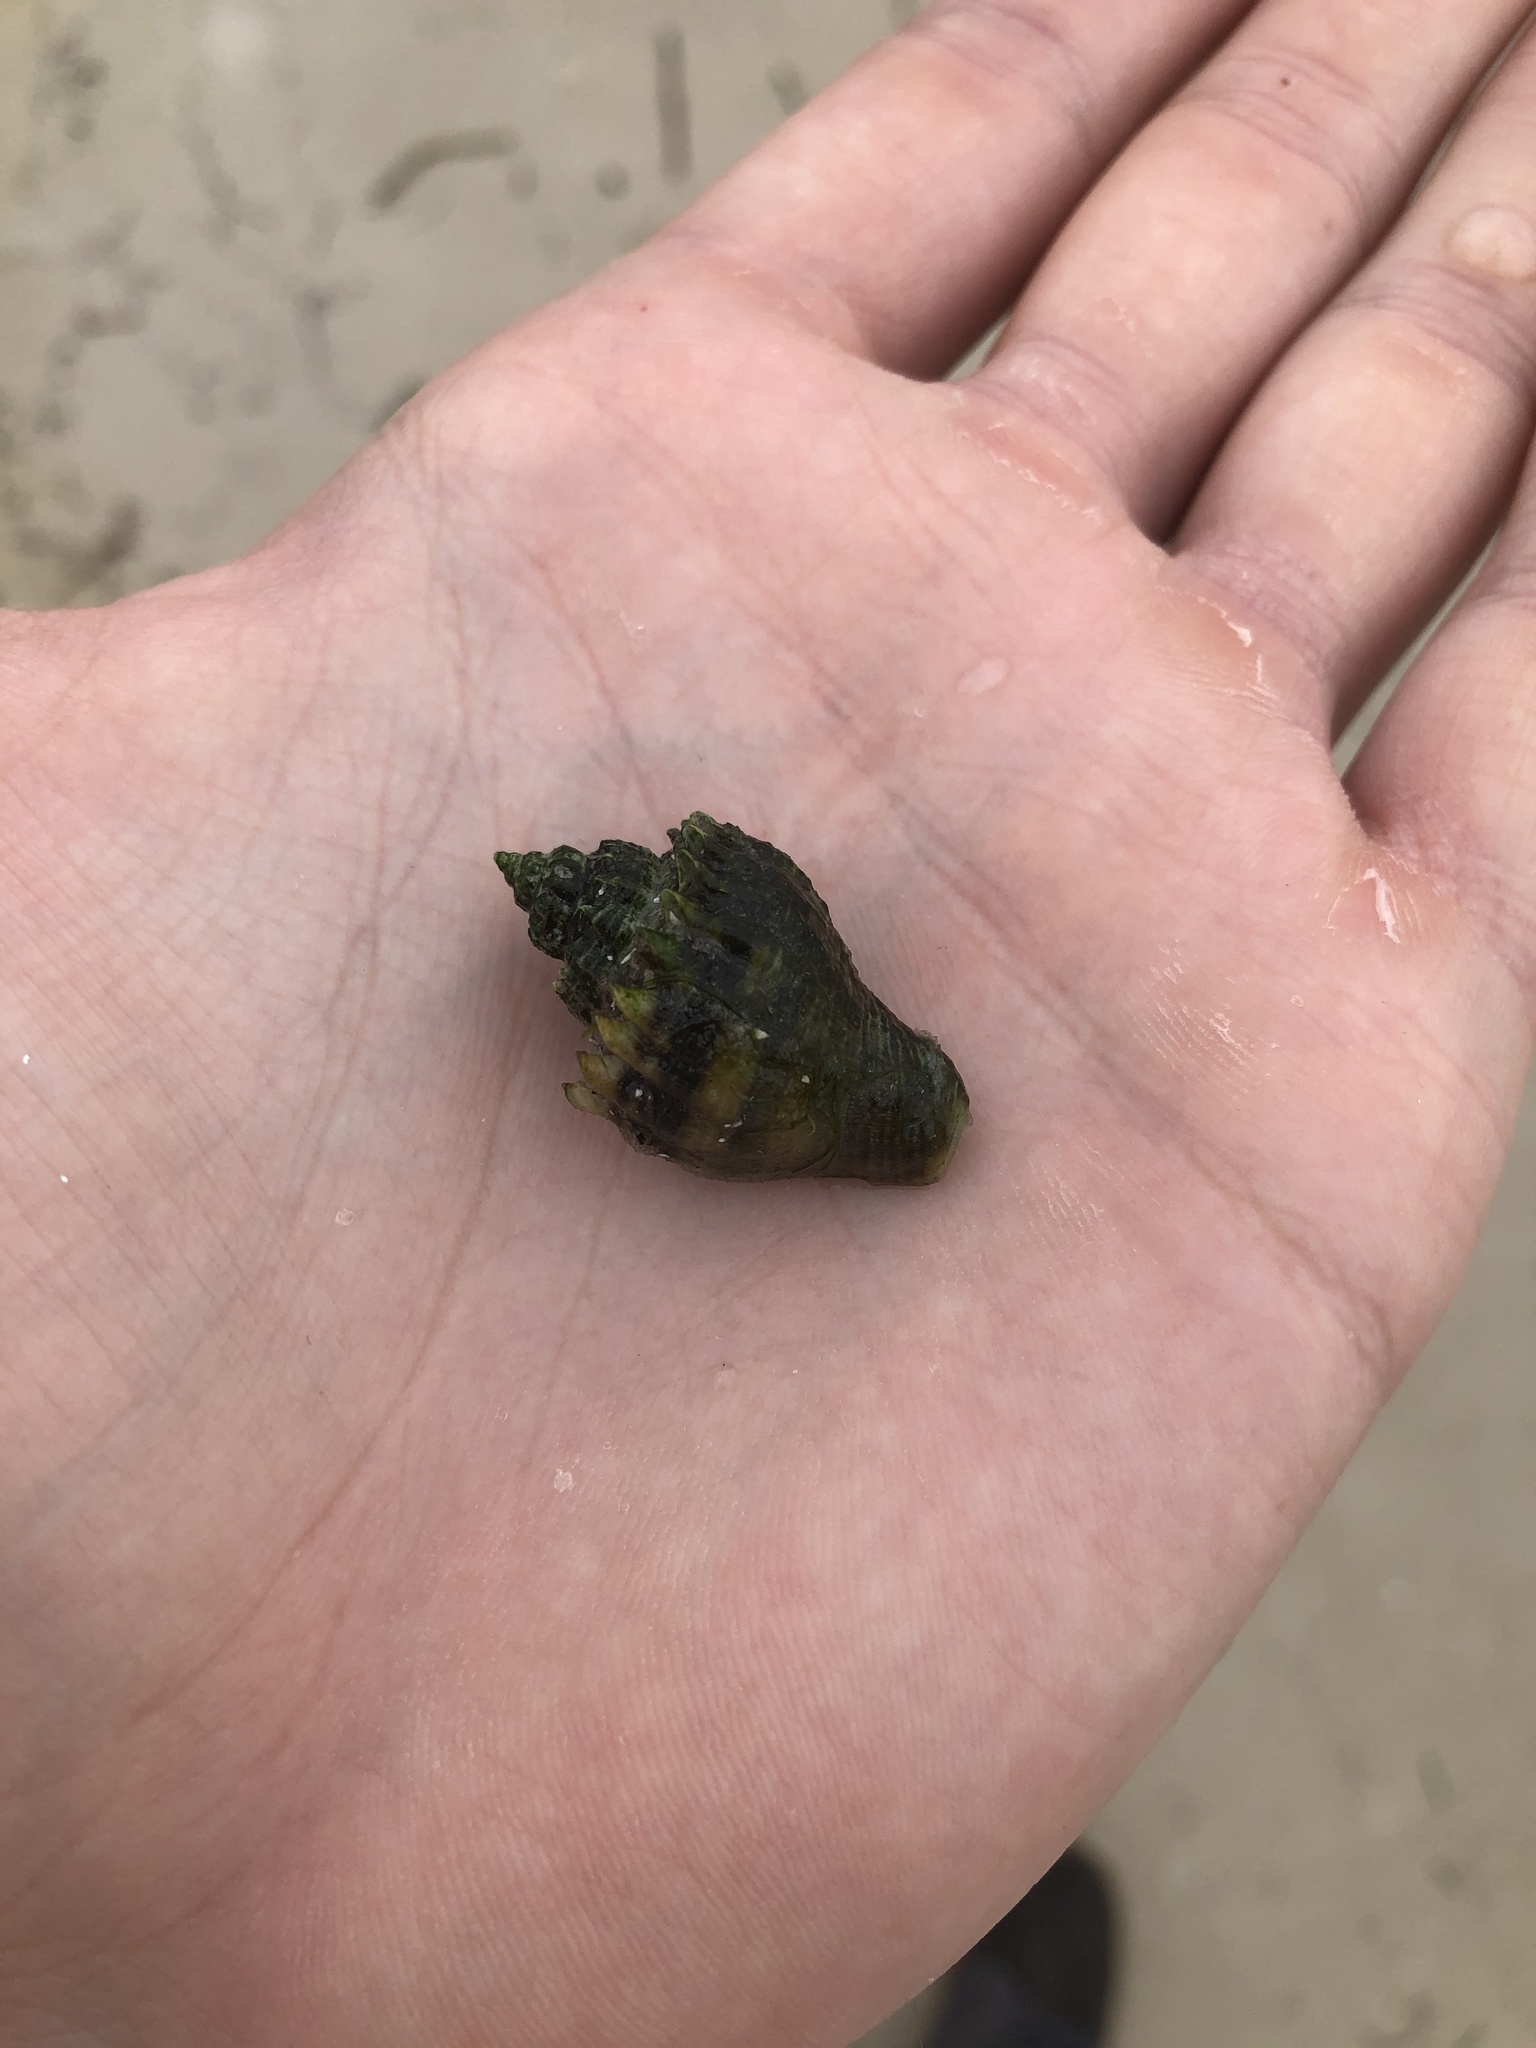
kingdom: Animalia
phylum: Mollusca
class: Gastropoda
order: Neogastropoda
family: Melongenidae
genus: Melongena
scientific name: Melongena corona
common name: American crown conch
